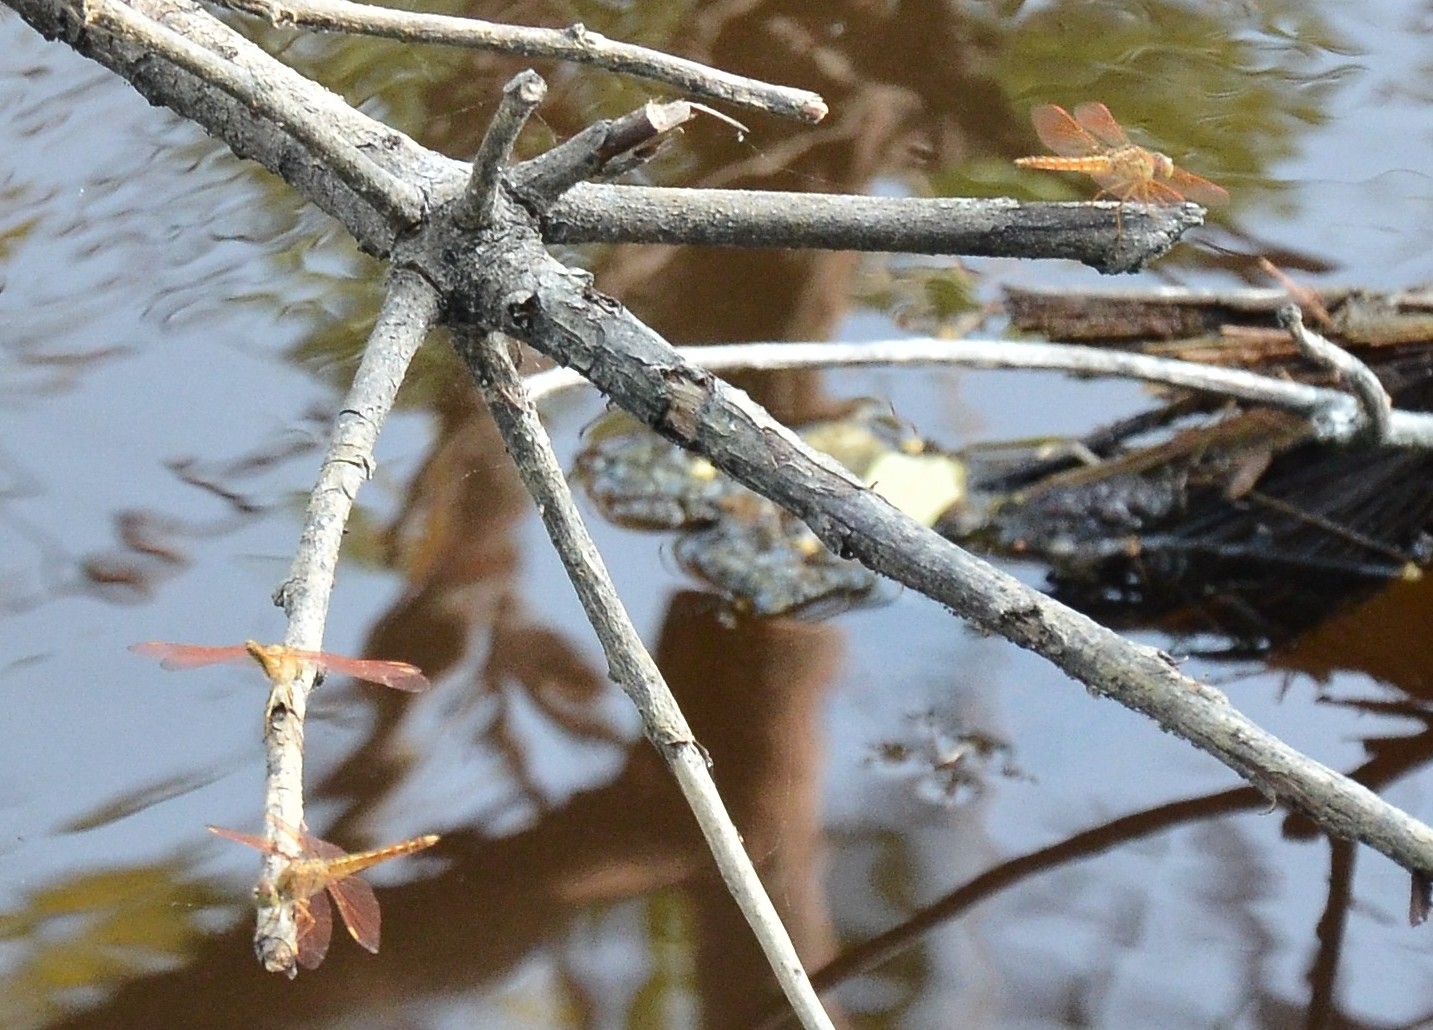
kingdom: Animalia
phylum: Arthropoda
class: Insecta
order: Odonata
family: Libellulidae
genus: Brachythemis
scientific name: Brachythemis contaminata
